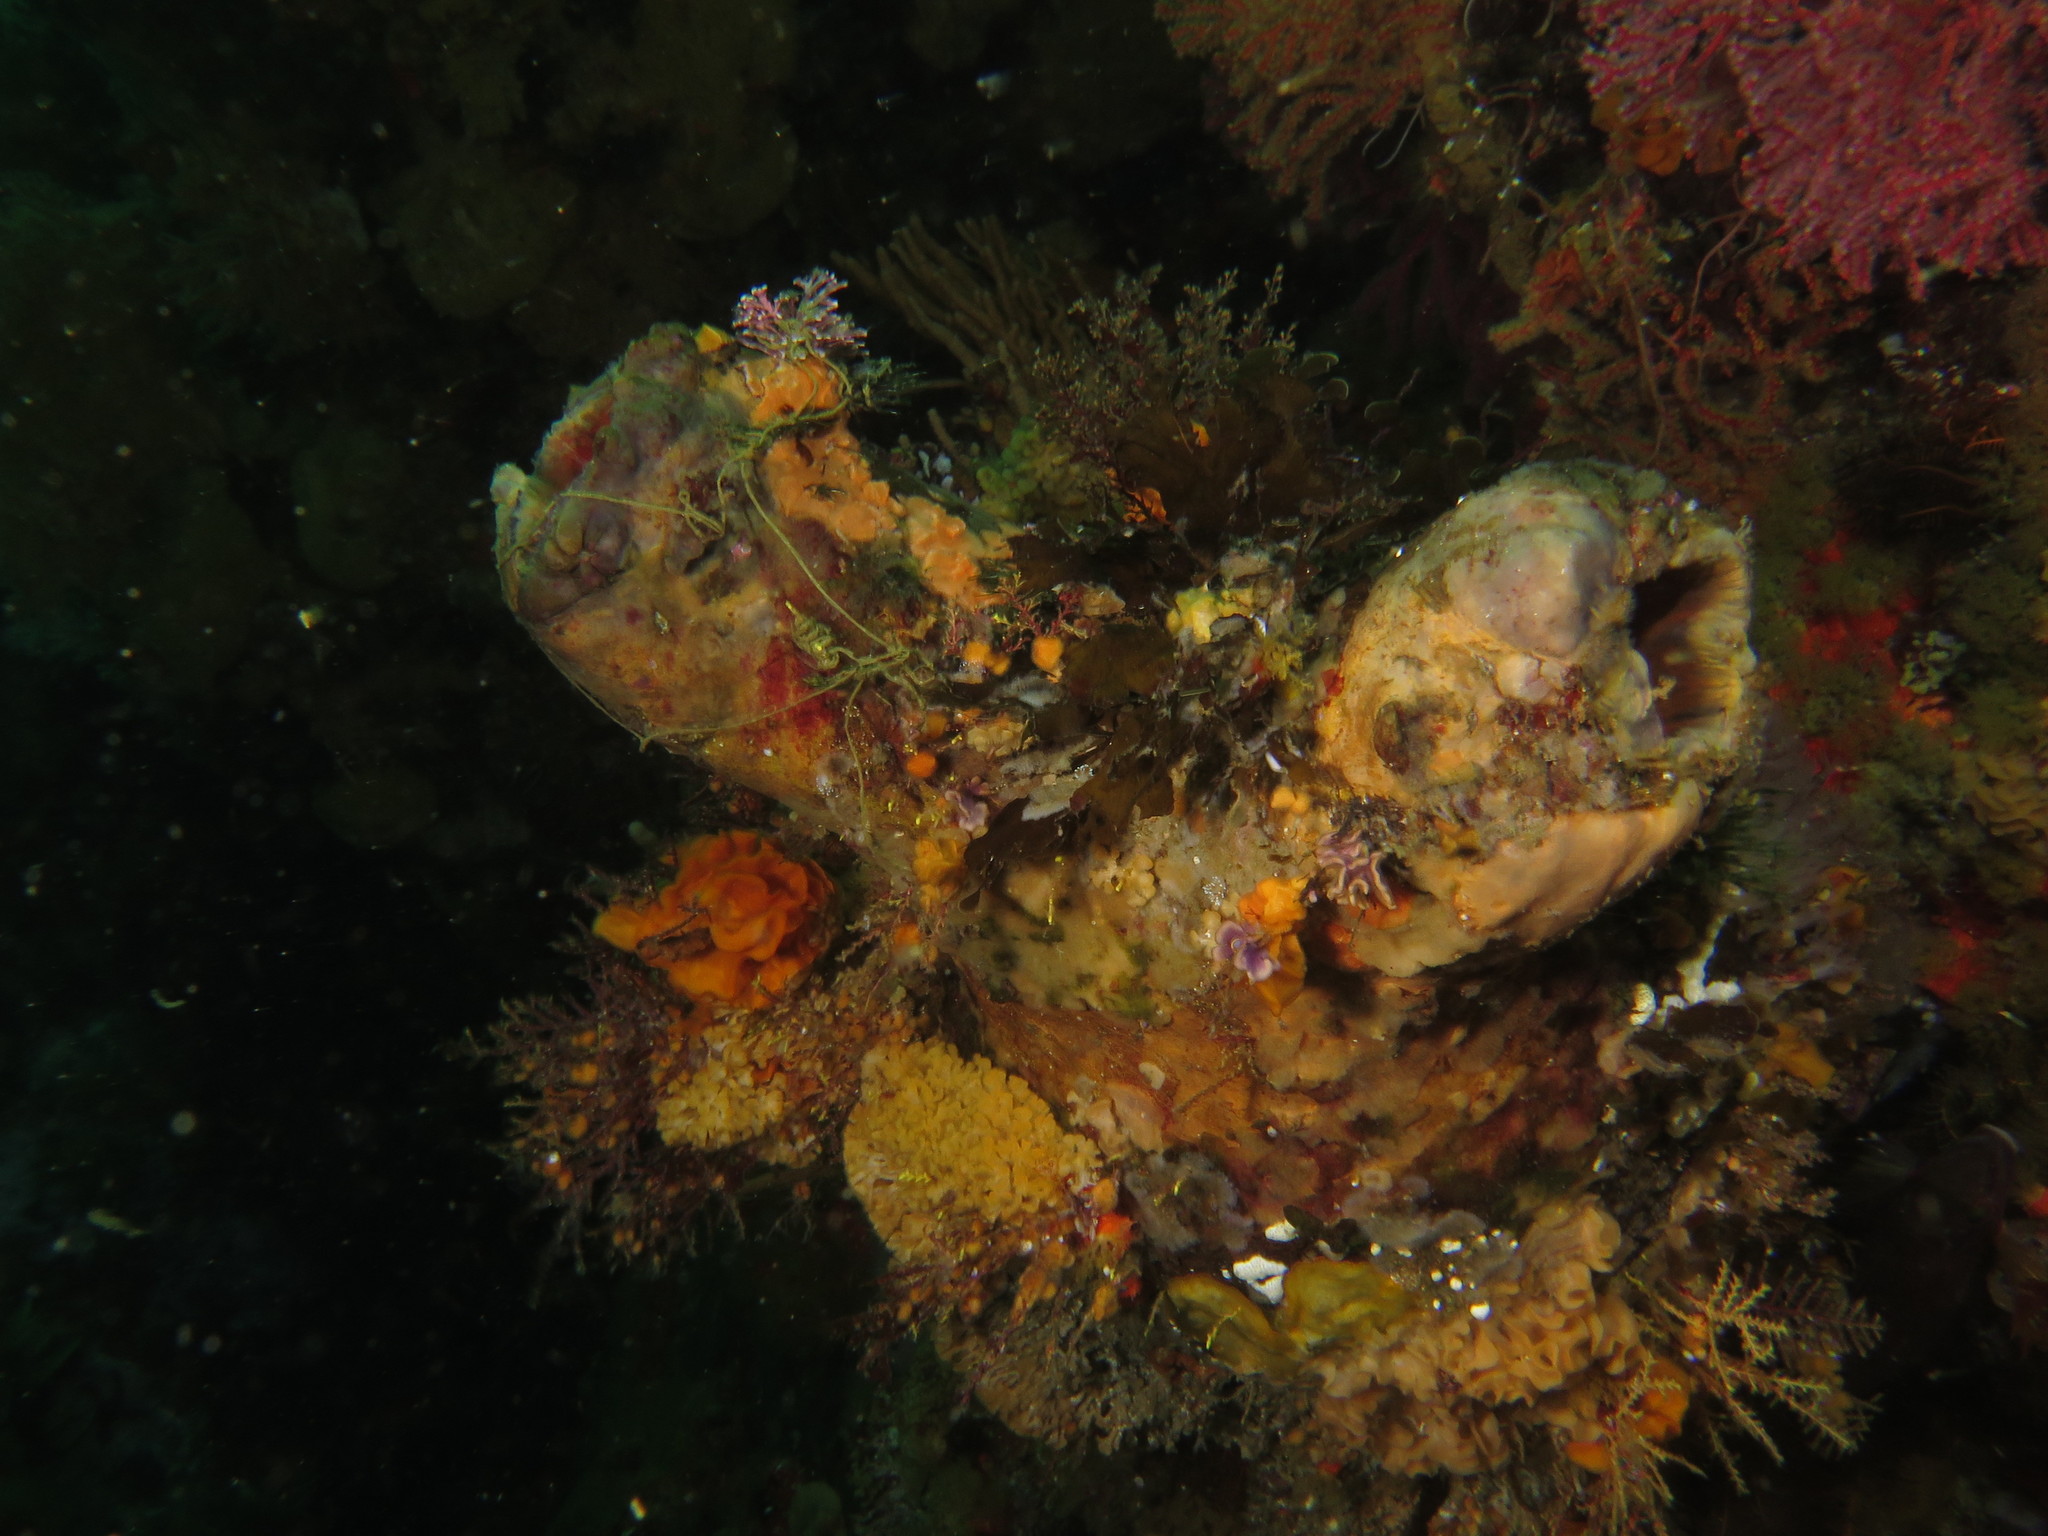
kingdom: Animalia
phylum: Chordata
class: Ascidiacea
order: Stolidobranchia
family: Pyuridae
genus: Pyura
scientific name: Pyura stolonifera
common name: Red bait
